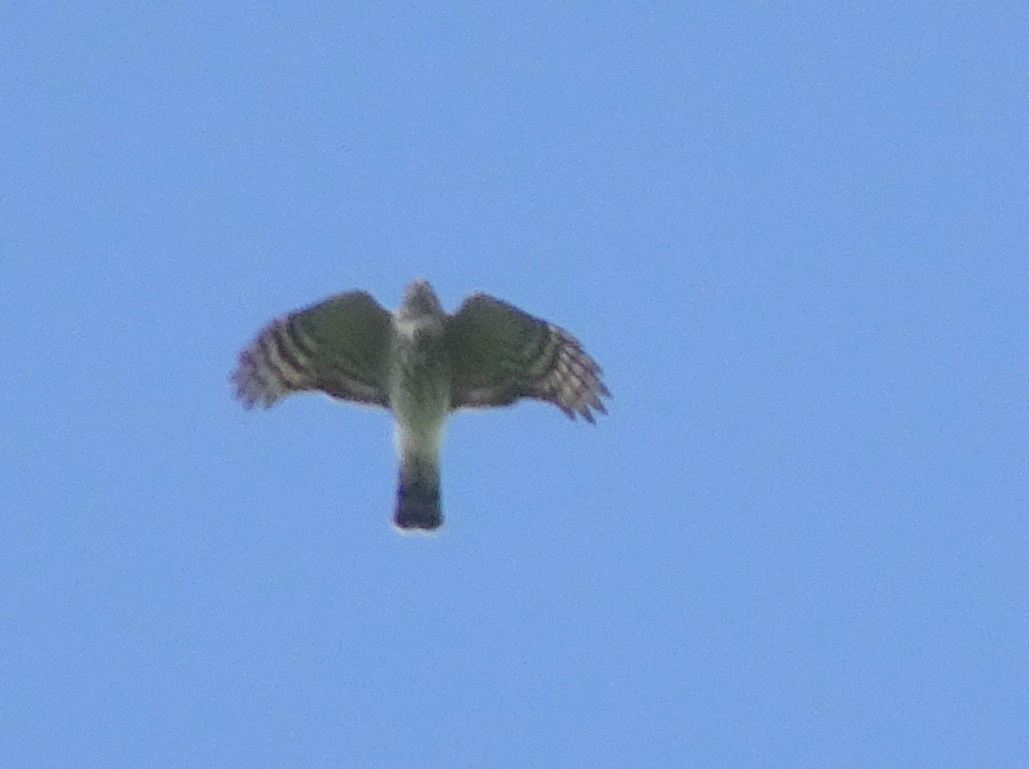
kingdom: Animalia
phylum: Chordata
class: Aves
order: Accipitriformes
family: Accipitridae
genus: Accipiter
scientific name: Accipiter striatus
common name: Sharp-shinned hawk
